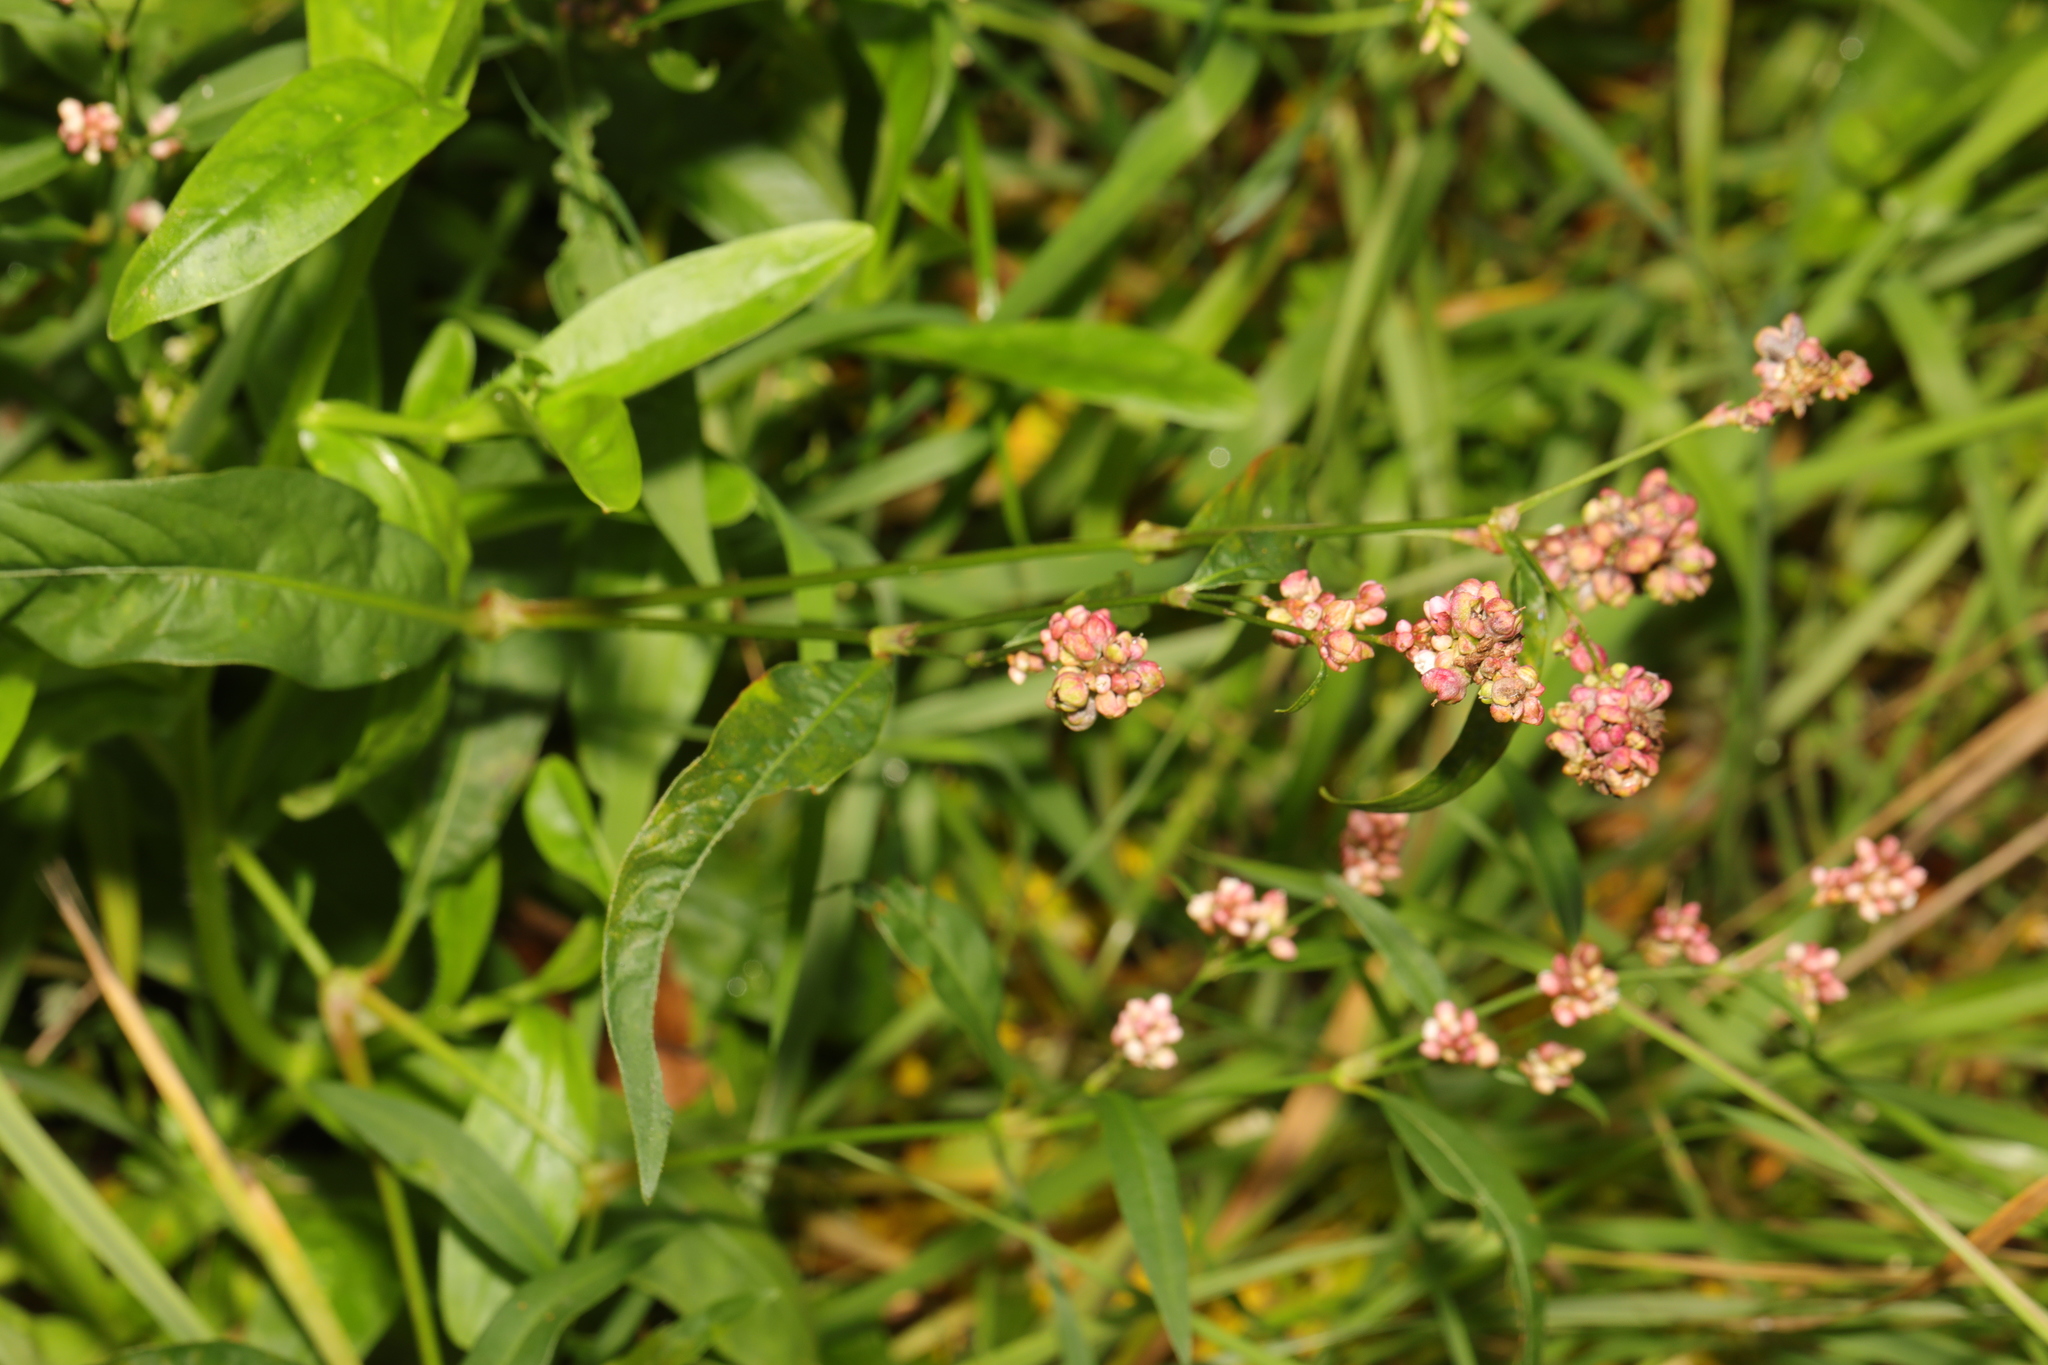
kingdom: Plantae
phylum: Tracheophyta
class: Magnoliopsida
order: Caryophyllales
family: Polygonaceae
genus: Persicaria
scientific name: Persicaria maculosa
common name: Redshank
